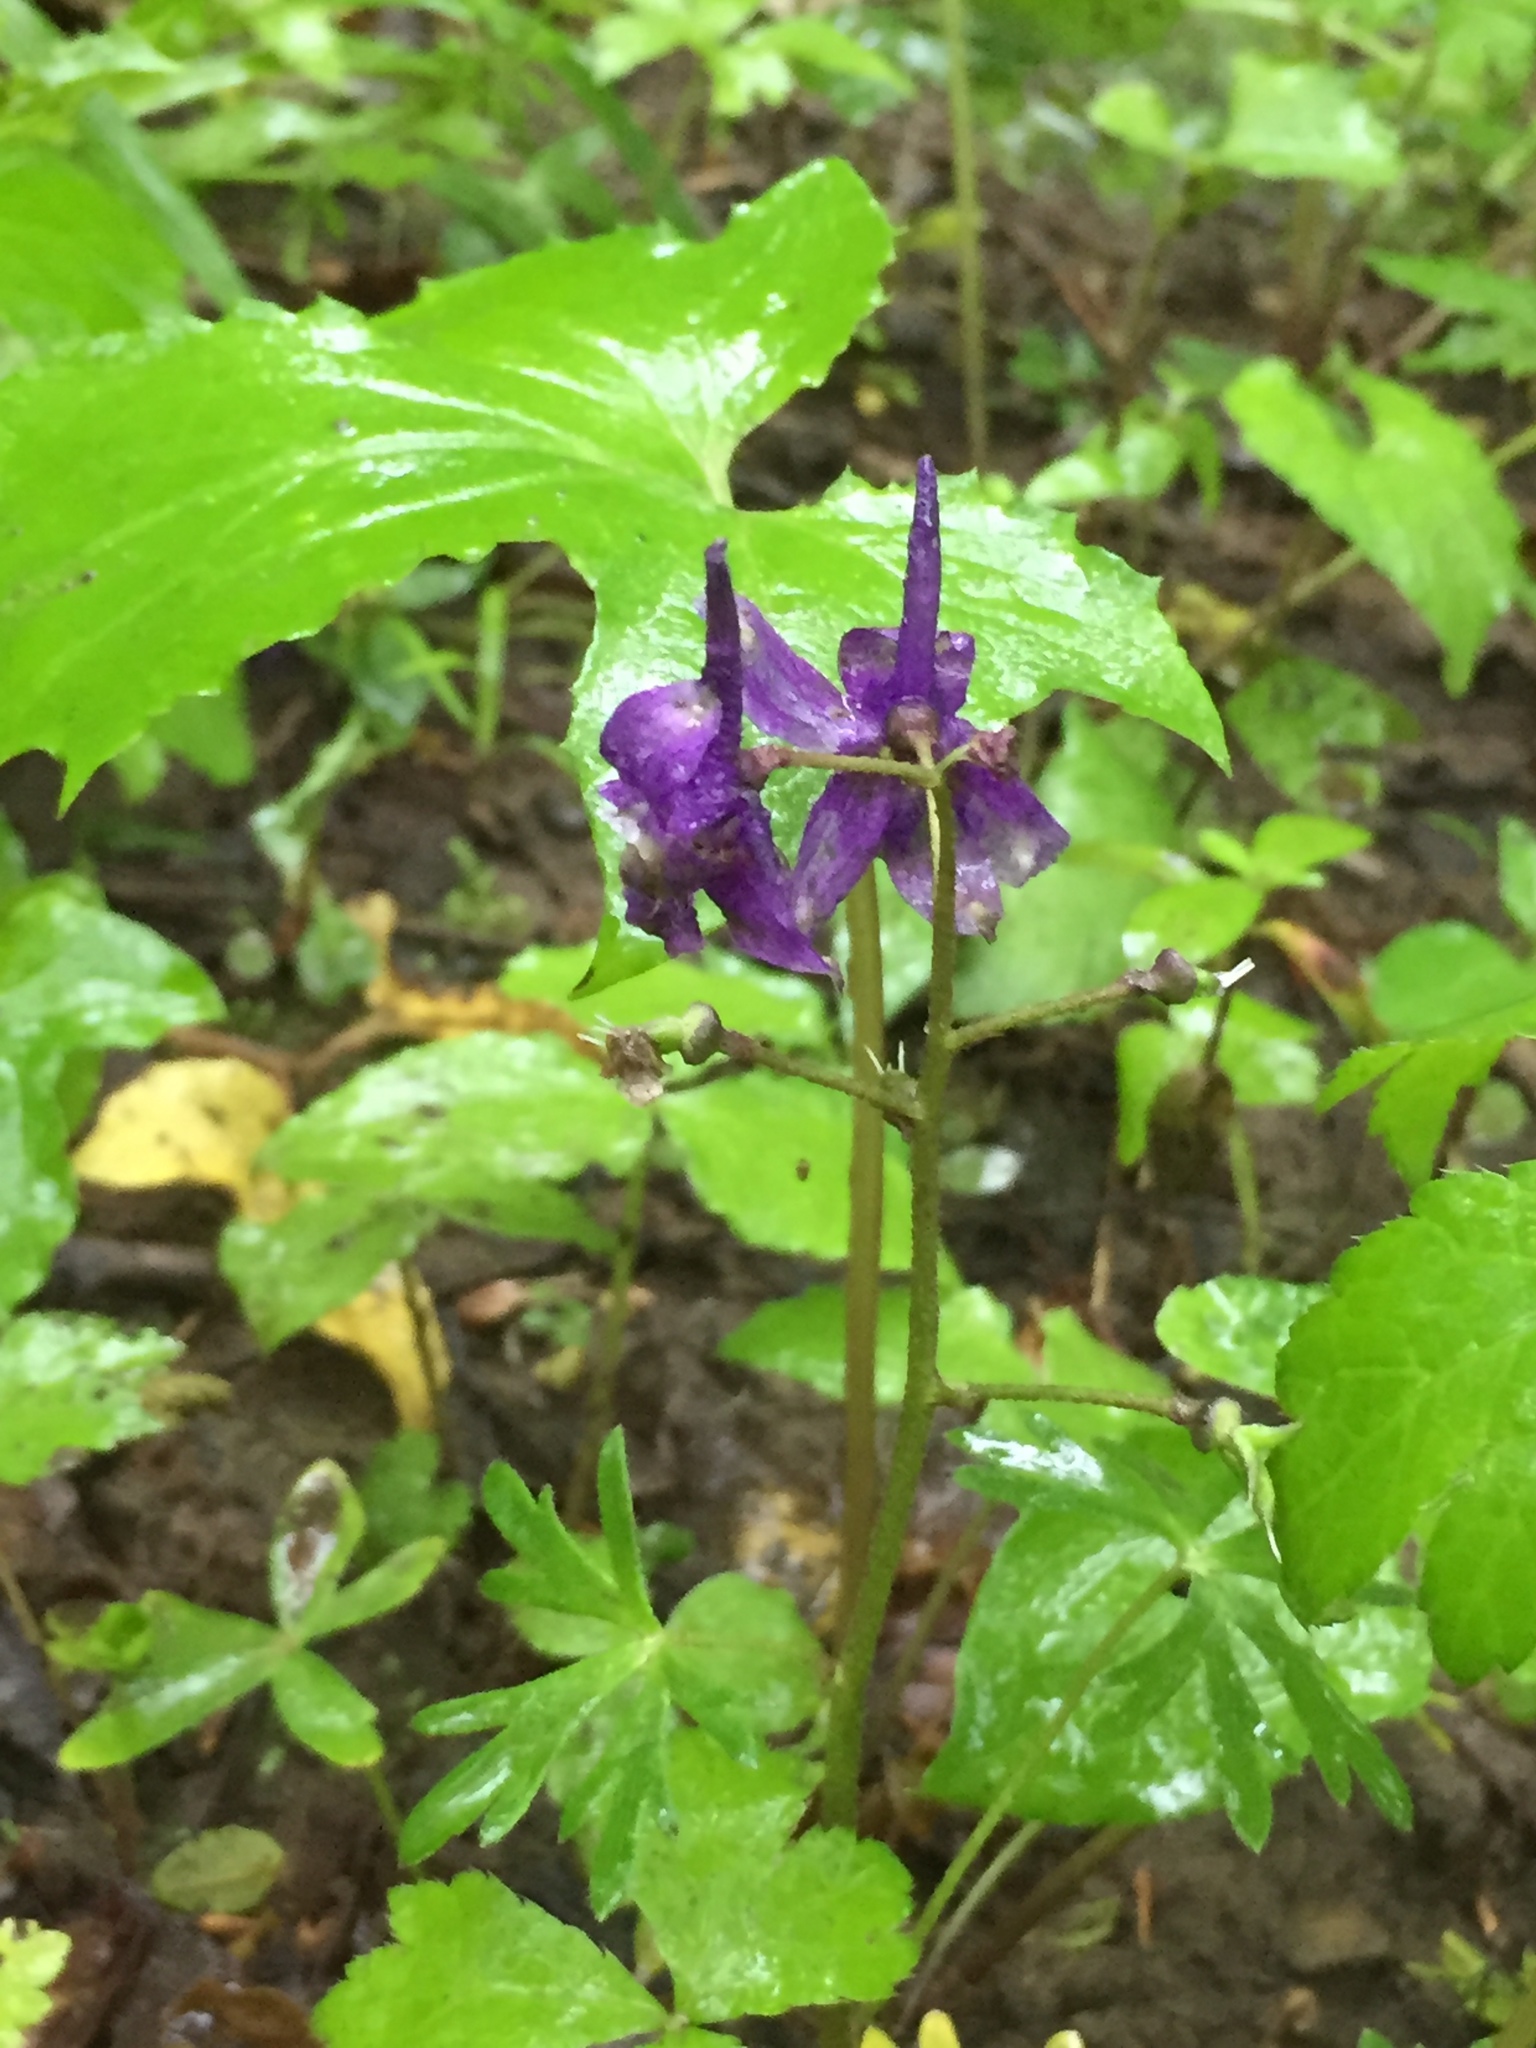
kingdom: Plantae
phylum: Tracheophyta
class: Magnoliopsida
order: Ranunculales
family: Ranunculaceae
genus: Delphinium
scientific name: Delphinium tricorne
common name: Dwarf larkspur
